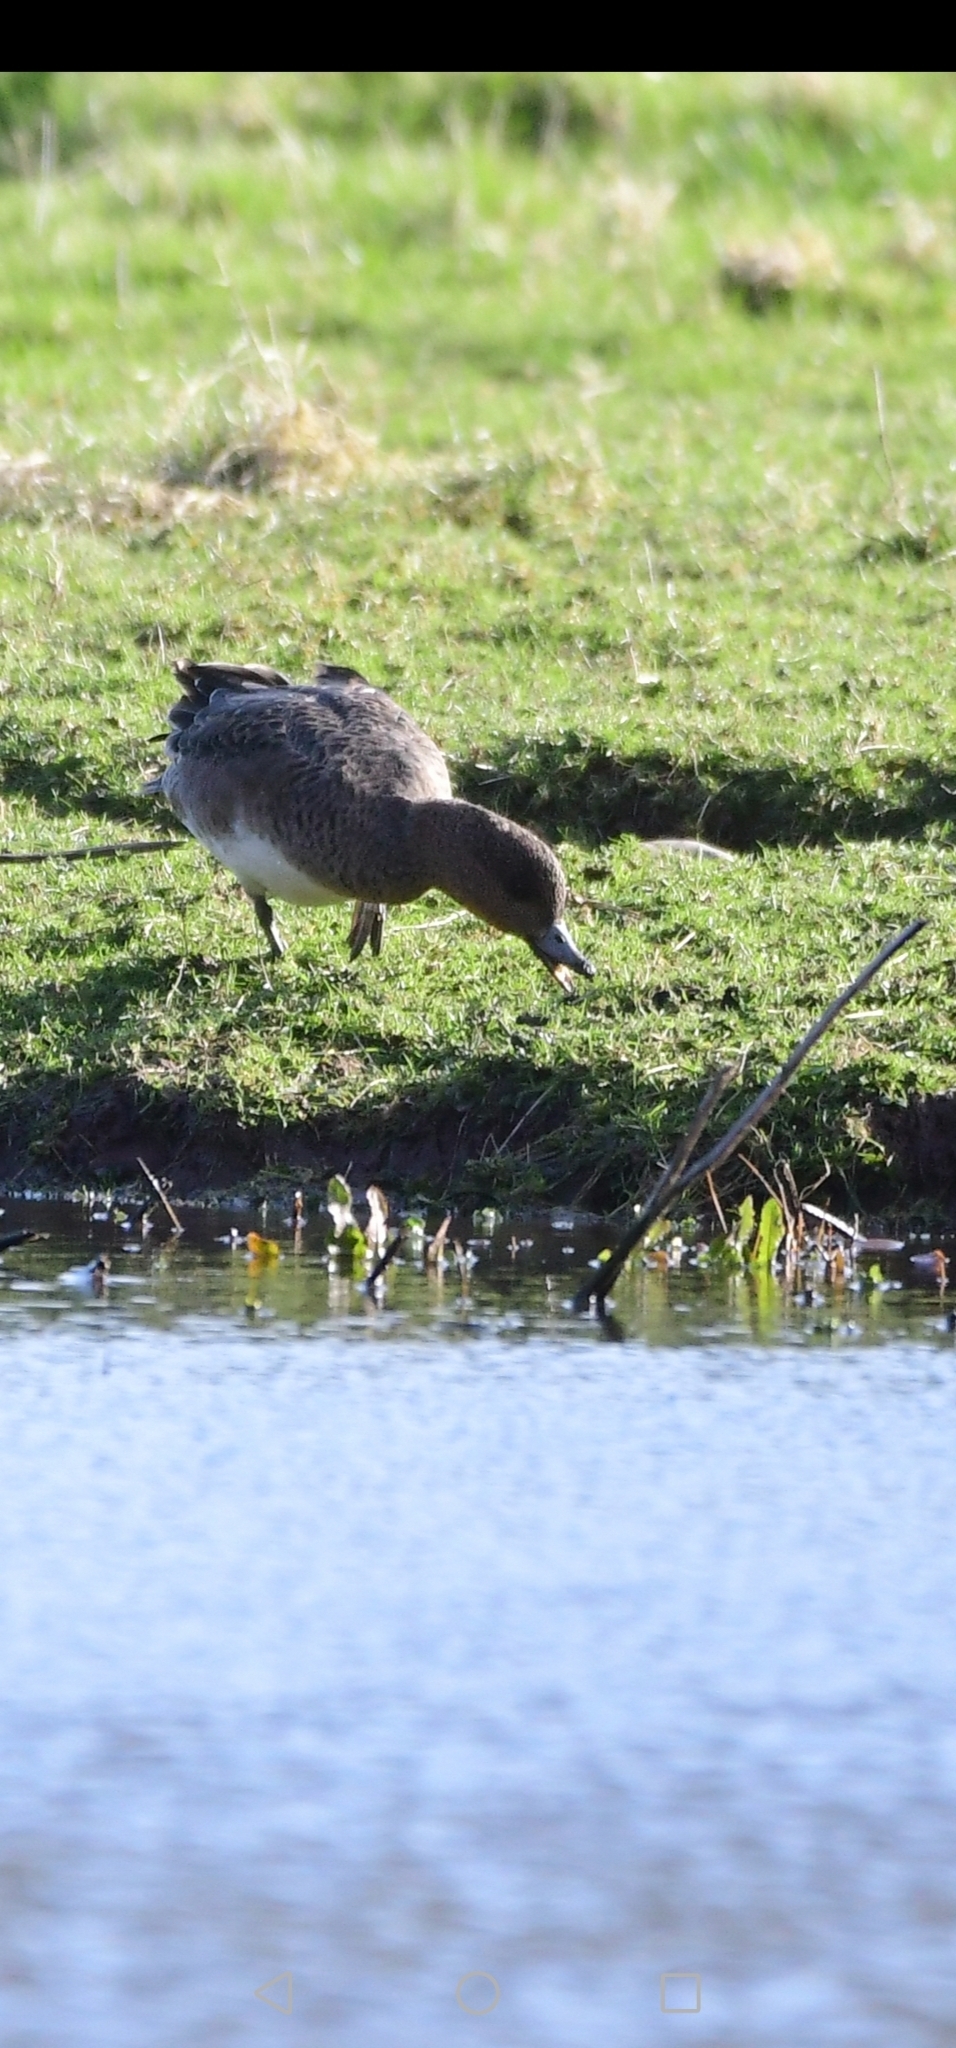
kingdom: Animalia
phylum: Chordata
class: Aves
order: Anseriformes
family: Anatidae
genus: Mareca
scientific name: Mareca penelope
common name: Eurasian wigeon
